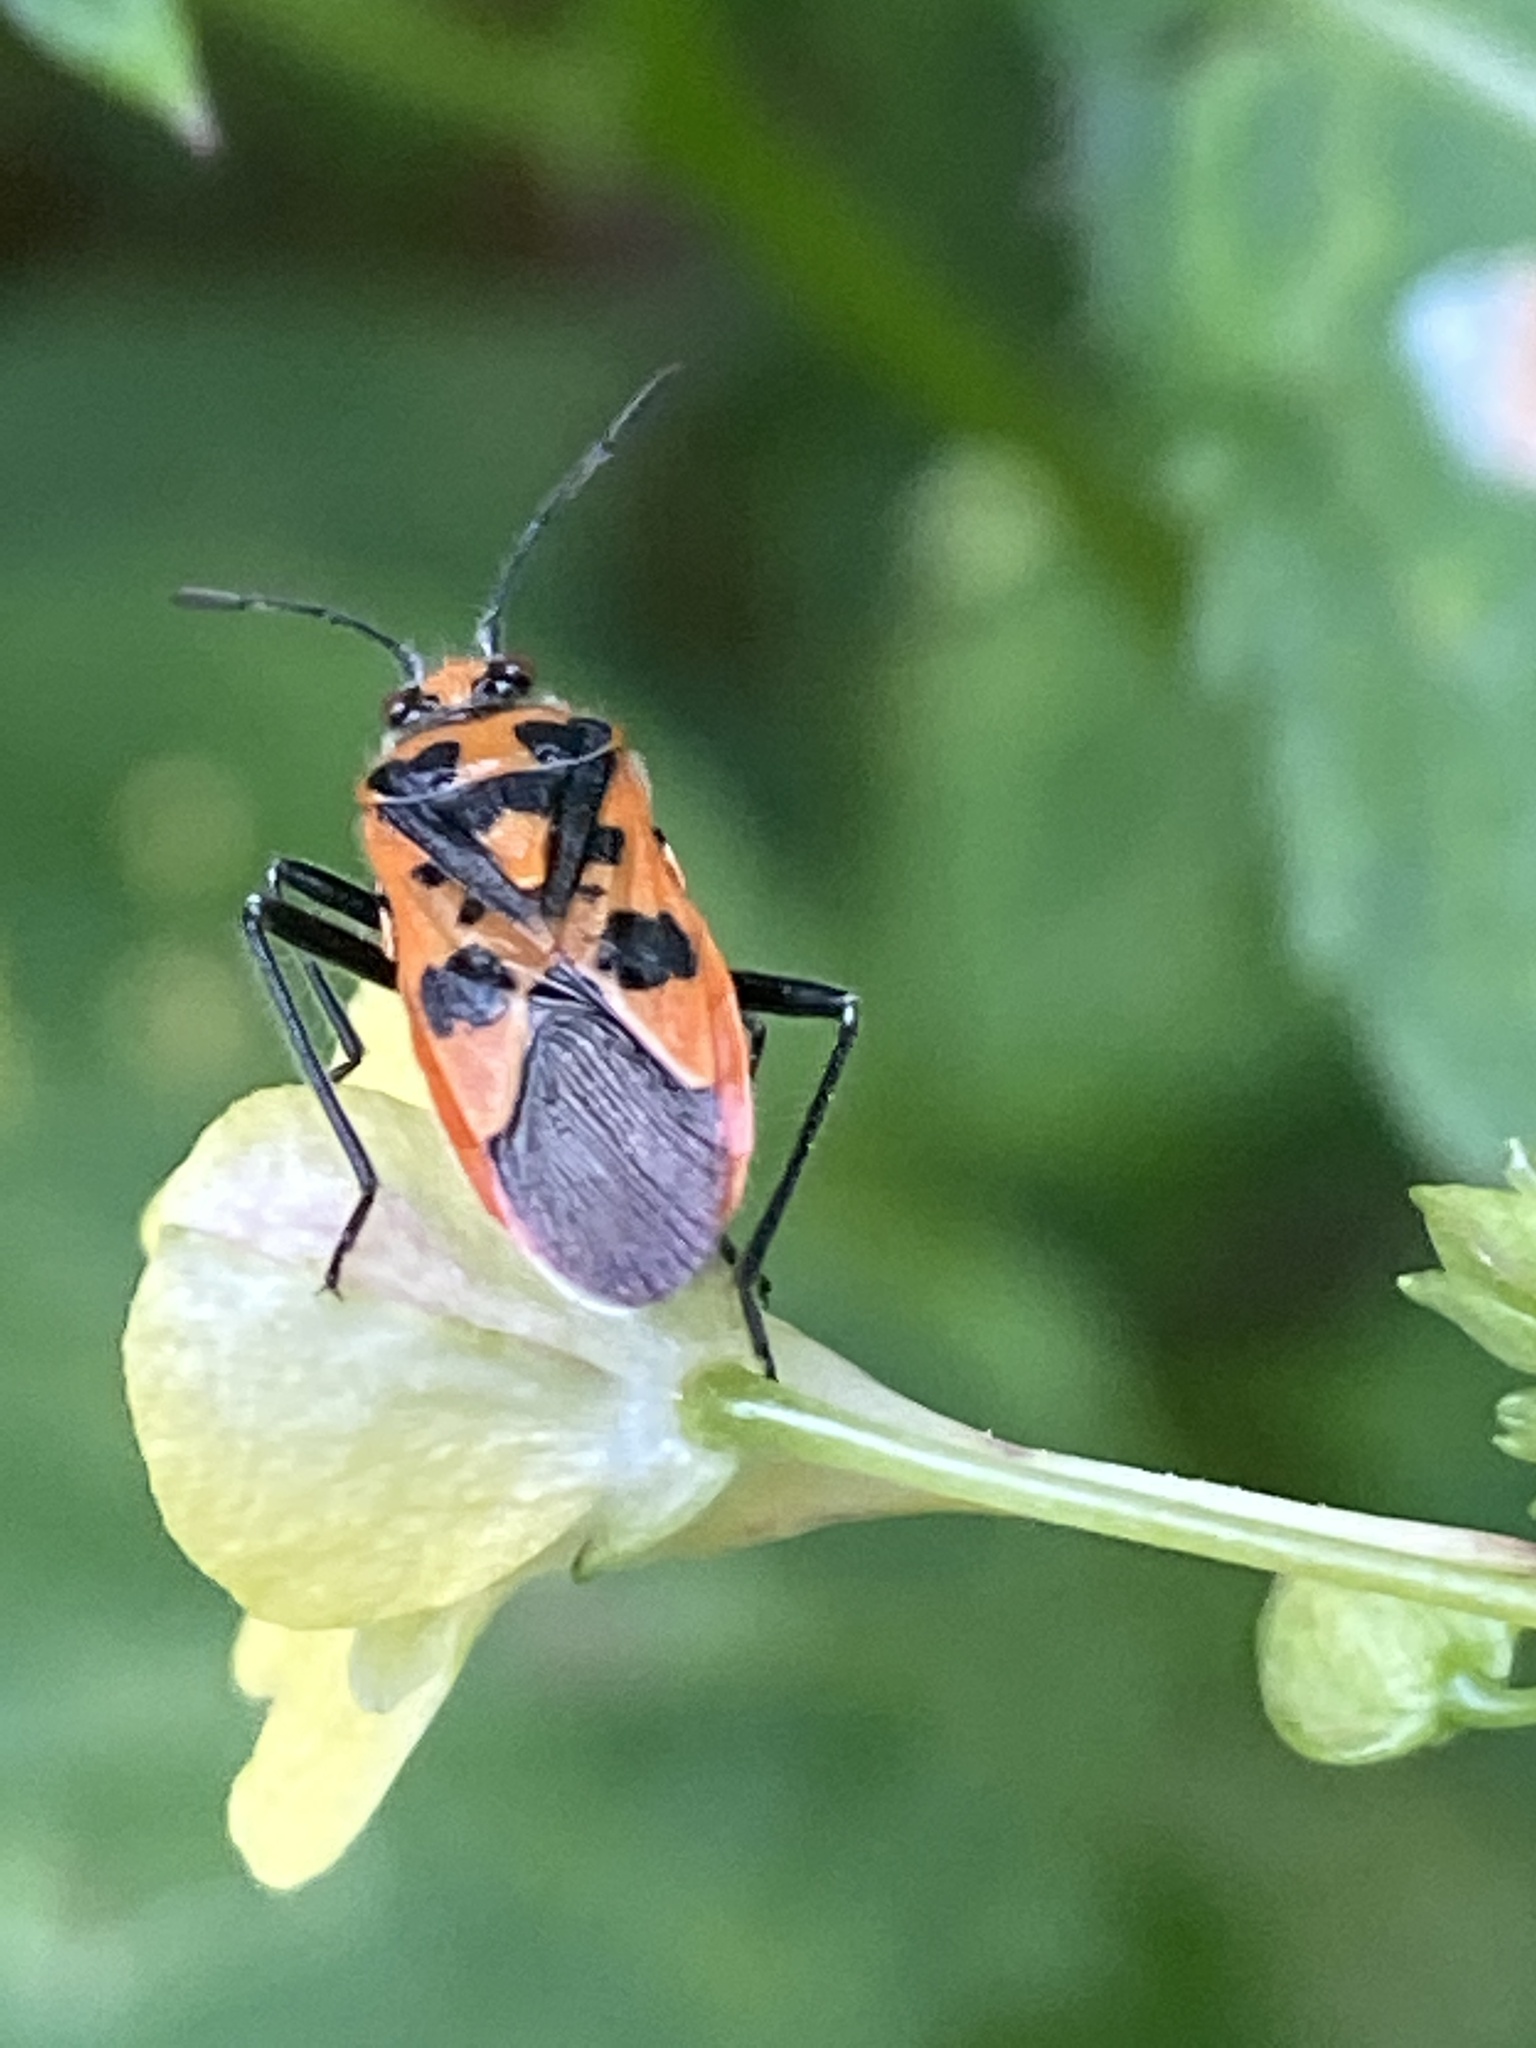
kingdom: Animalia
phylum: Arthropoda
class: Insecta
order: Hemiptera
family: Rhopalidae
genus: Corizus
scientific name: Corizus hyoscyami
